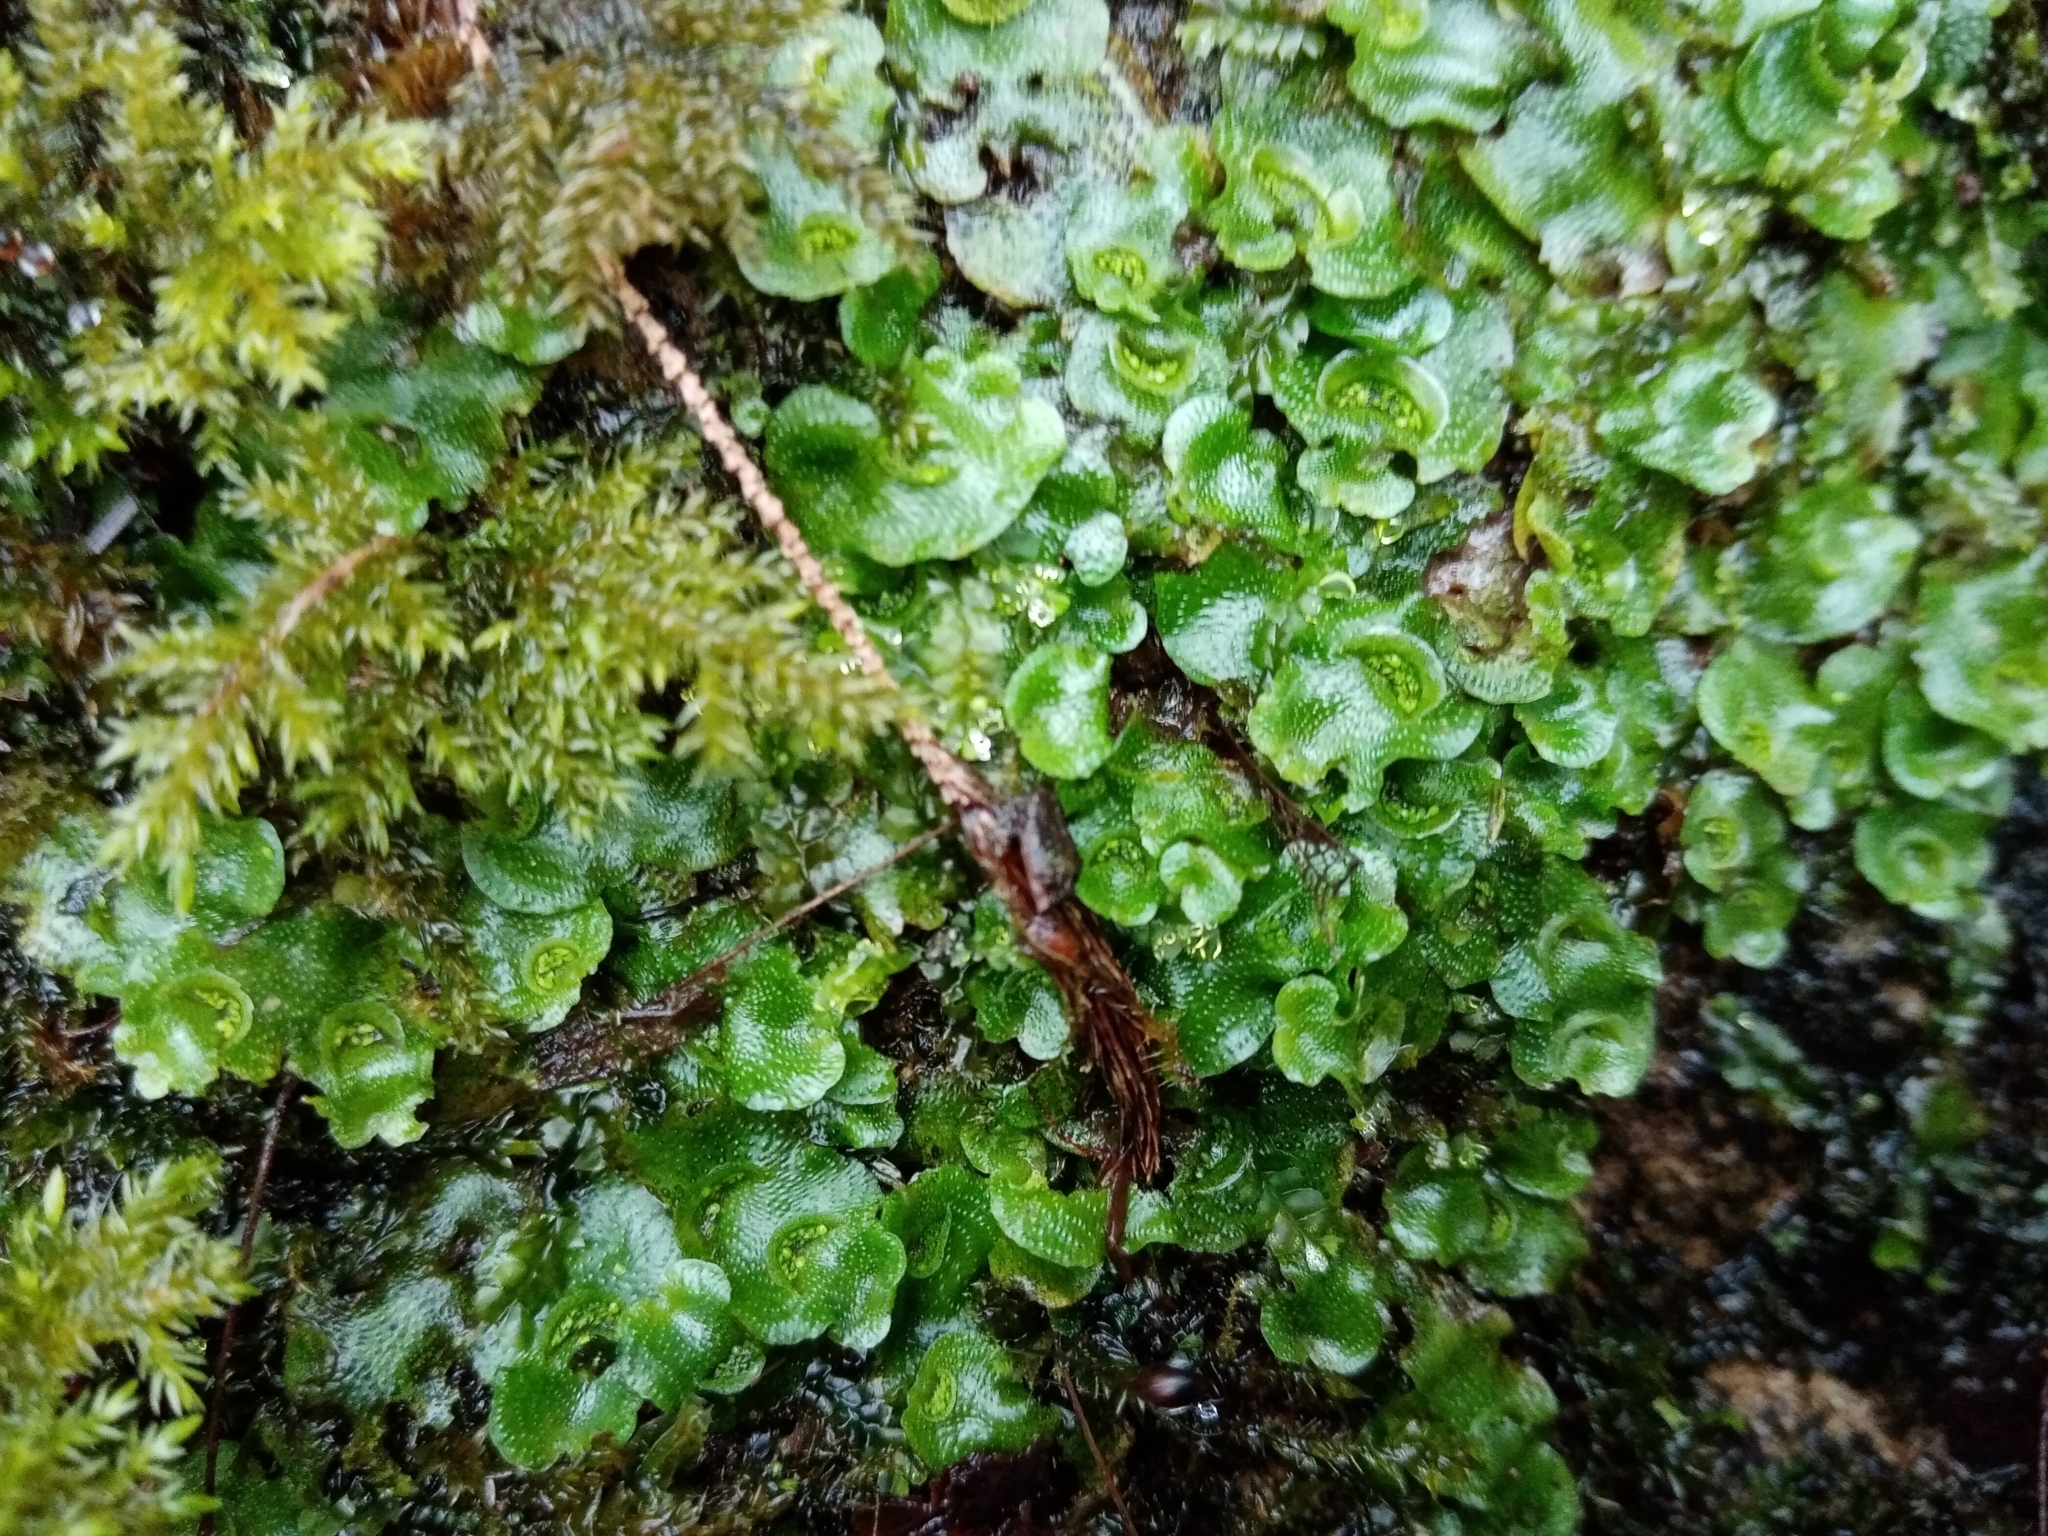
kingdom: Plantae
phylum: Marchantiophyta
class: Marchantiopsida
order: Lunulariales
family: Lunulariaceae
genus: Lunularia
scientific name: Lunularia cruciata
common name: Crescent-cup liverwort
